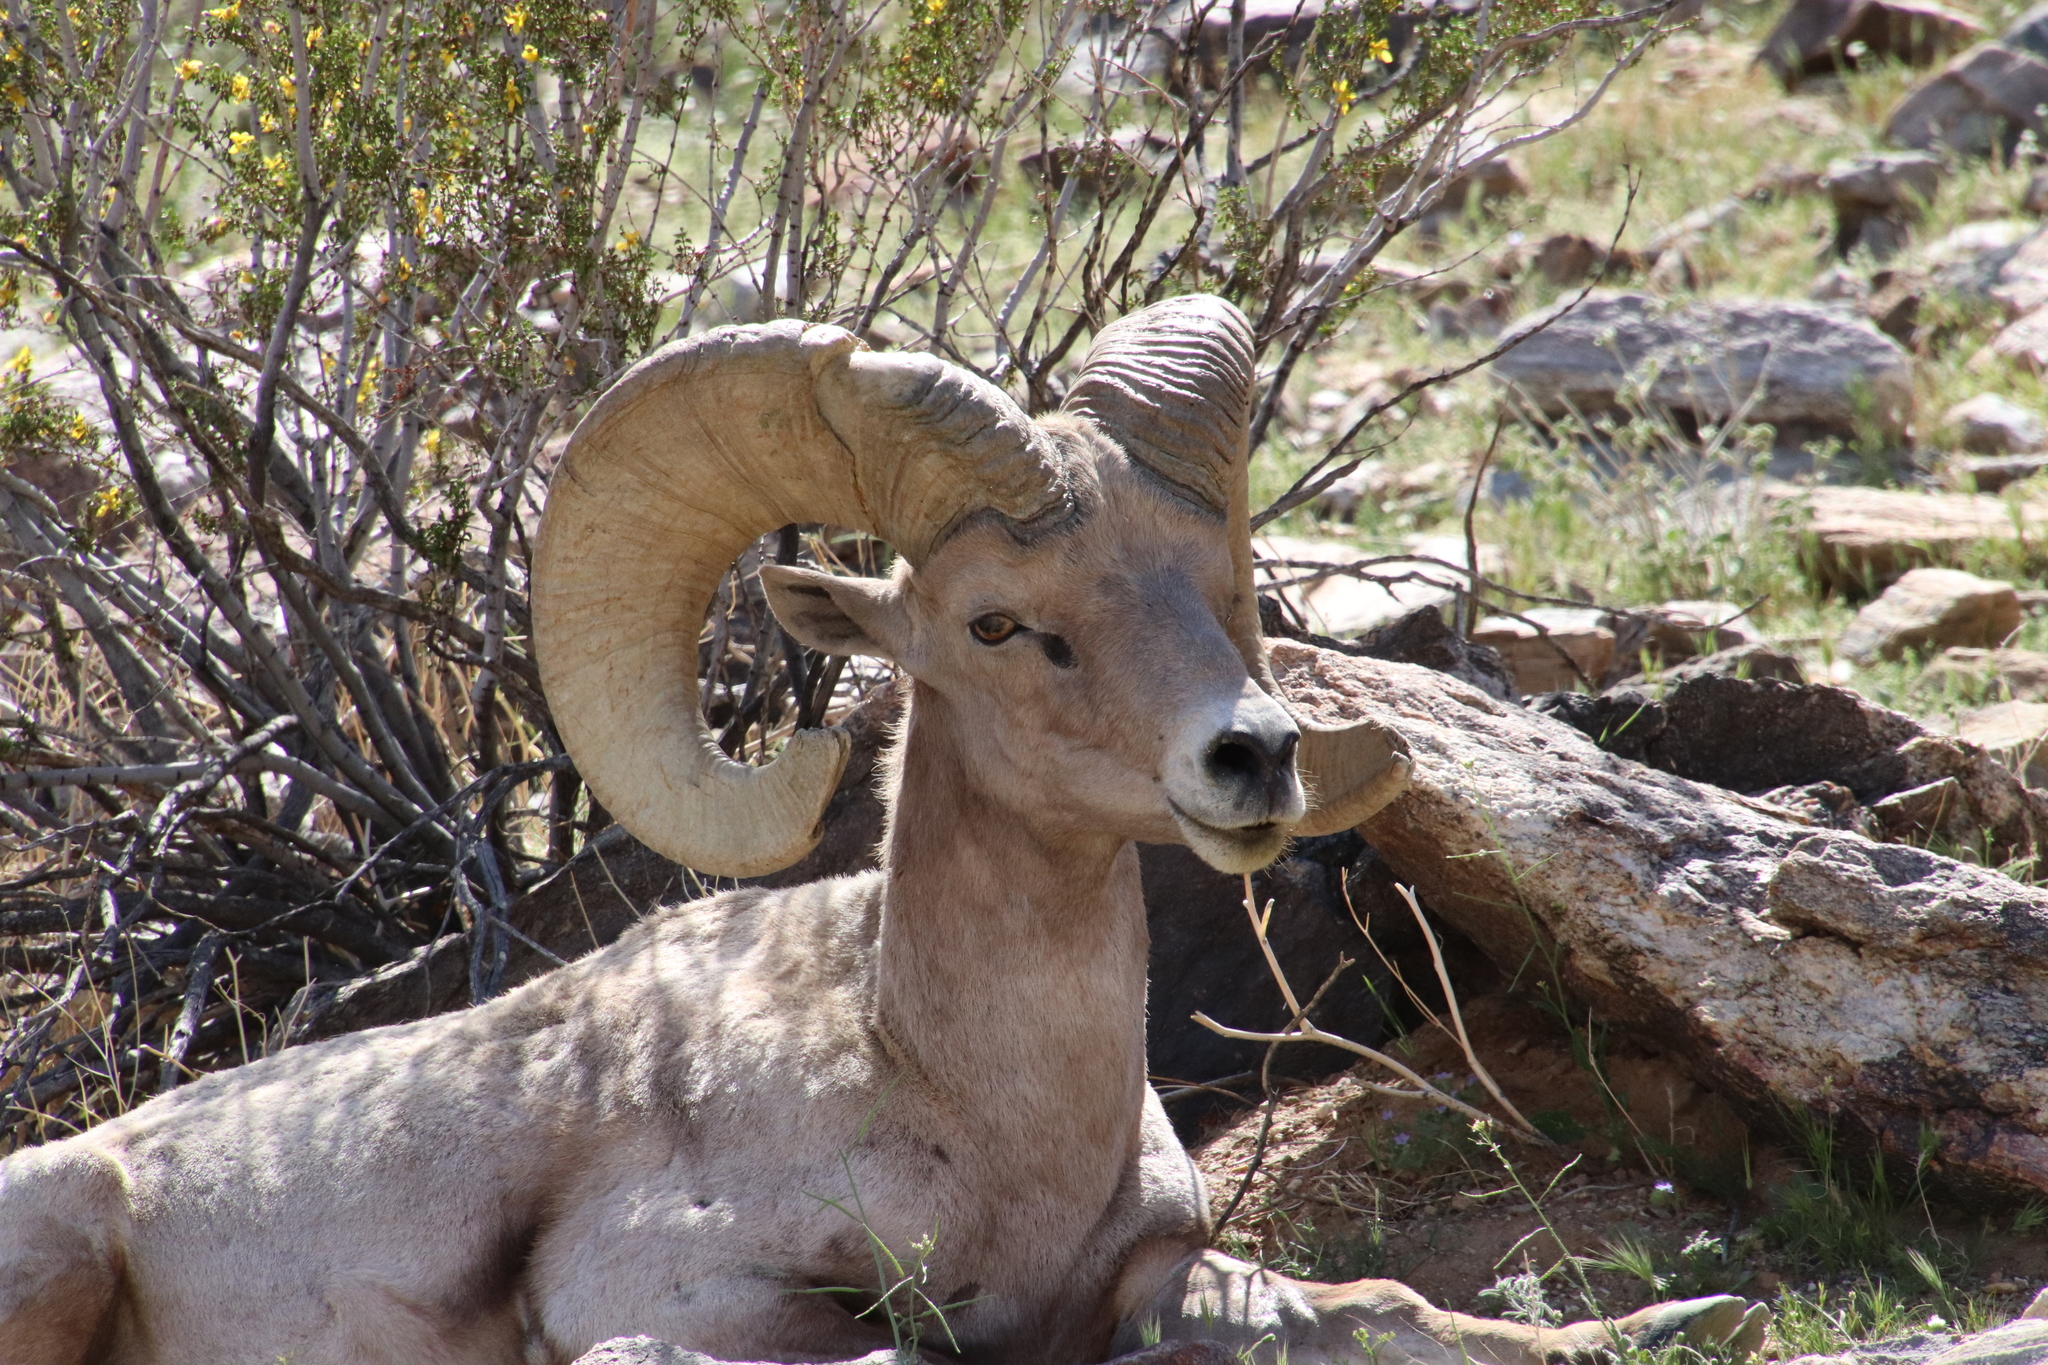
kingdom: Animalia
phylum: Chordata
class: Mammalia
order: Artiodactyla
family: Bovidae
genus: Ovis
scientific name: Ovis canadensis
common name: Bighorn sheep
